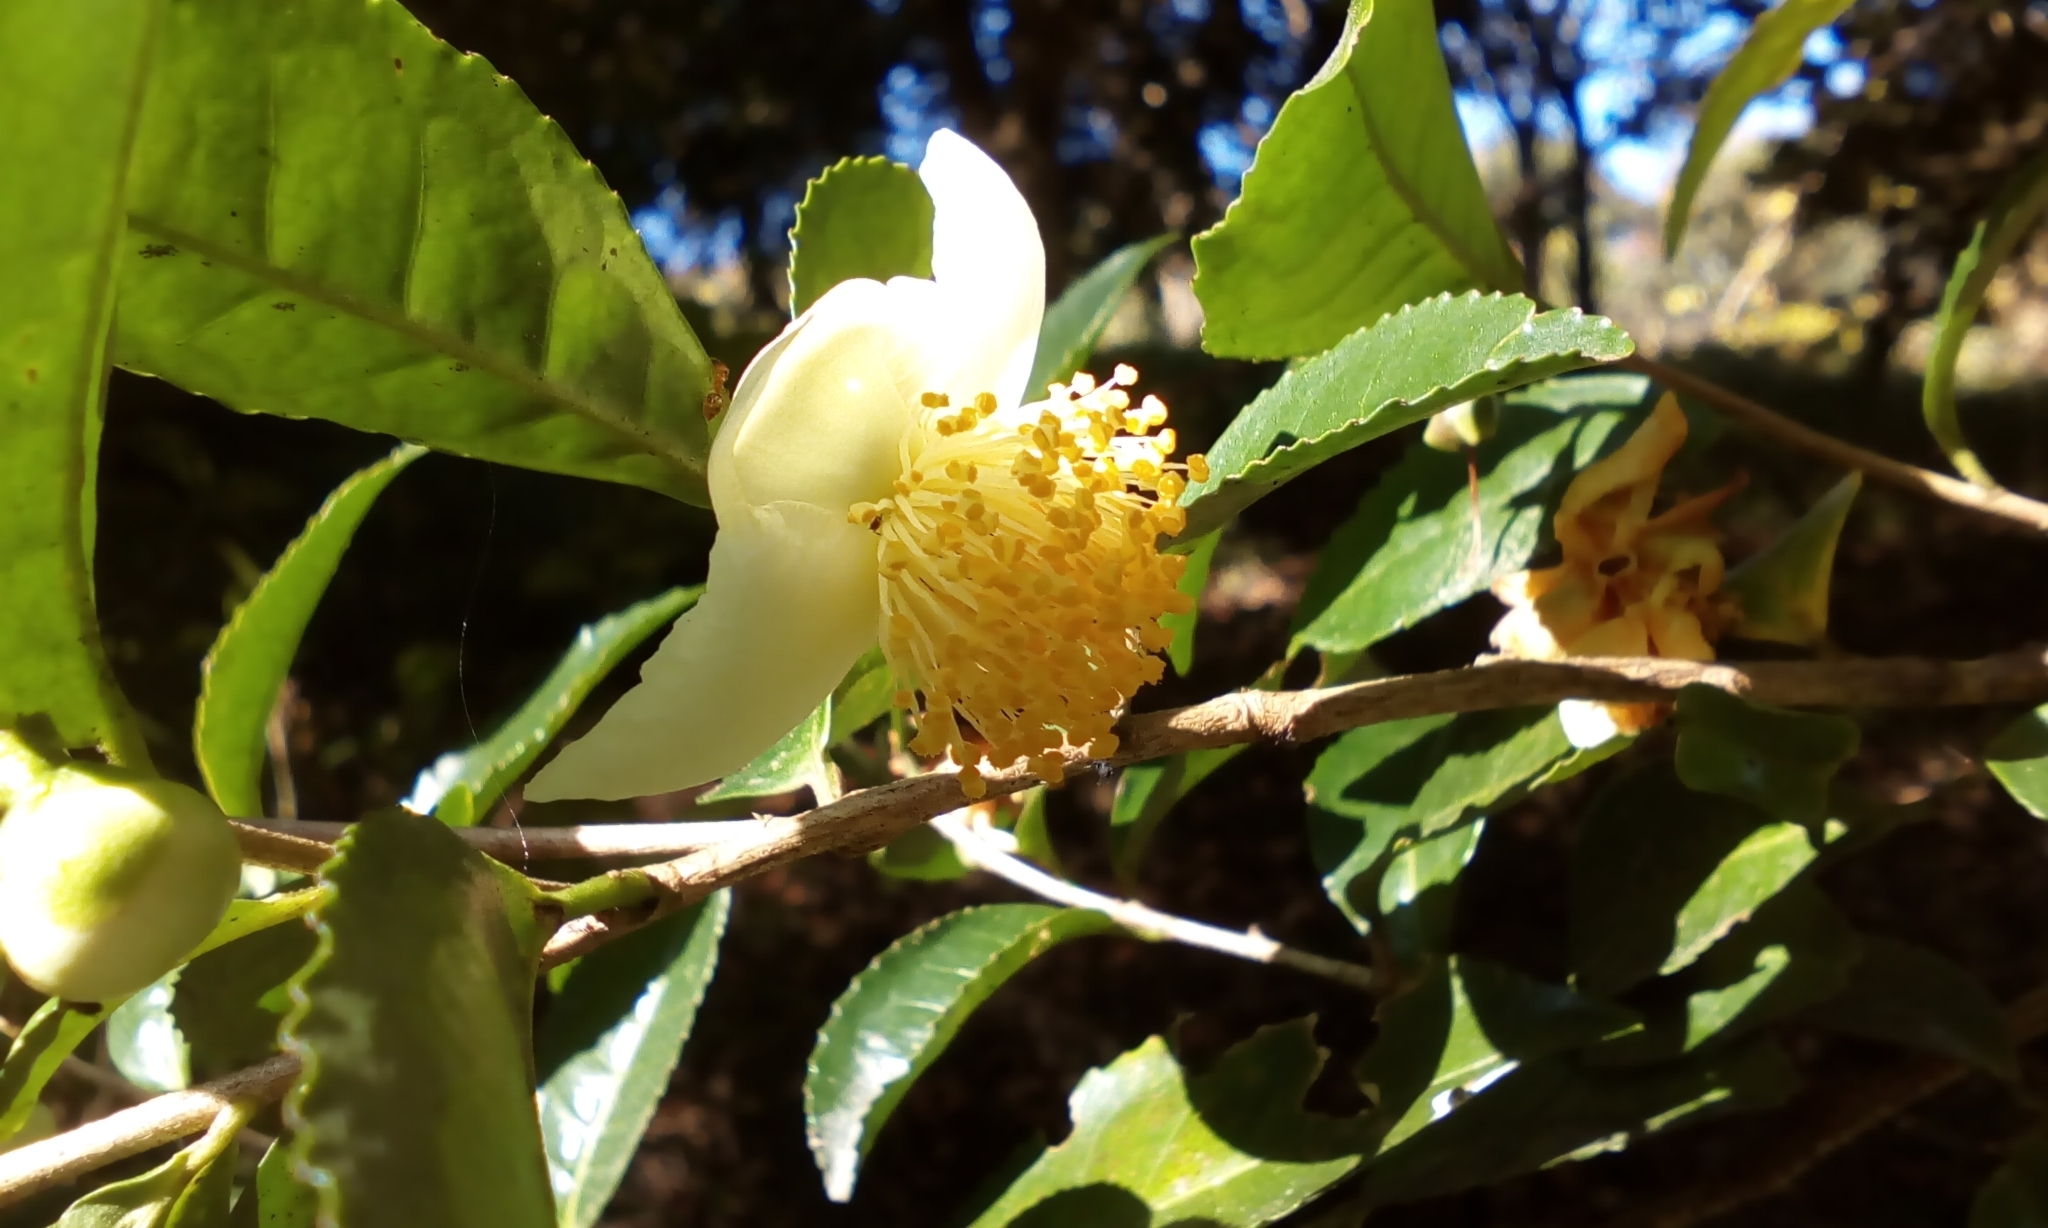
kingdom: Plantae
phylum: Tracheophyta
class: Magnoliopsida
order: Ericales
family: Theaceae
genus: Camellia
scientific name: Camellia sinensis
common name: Tea
